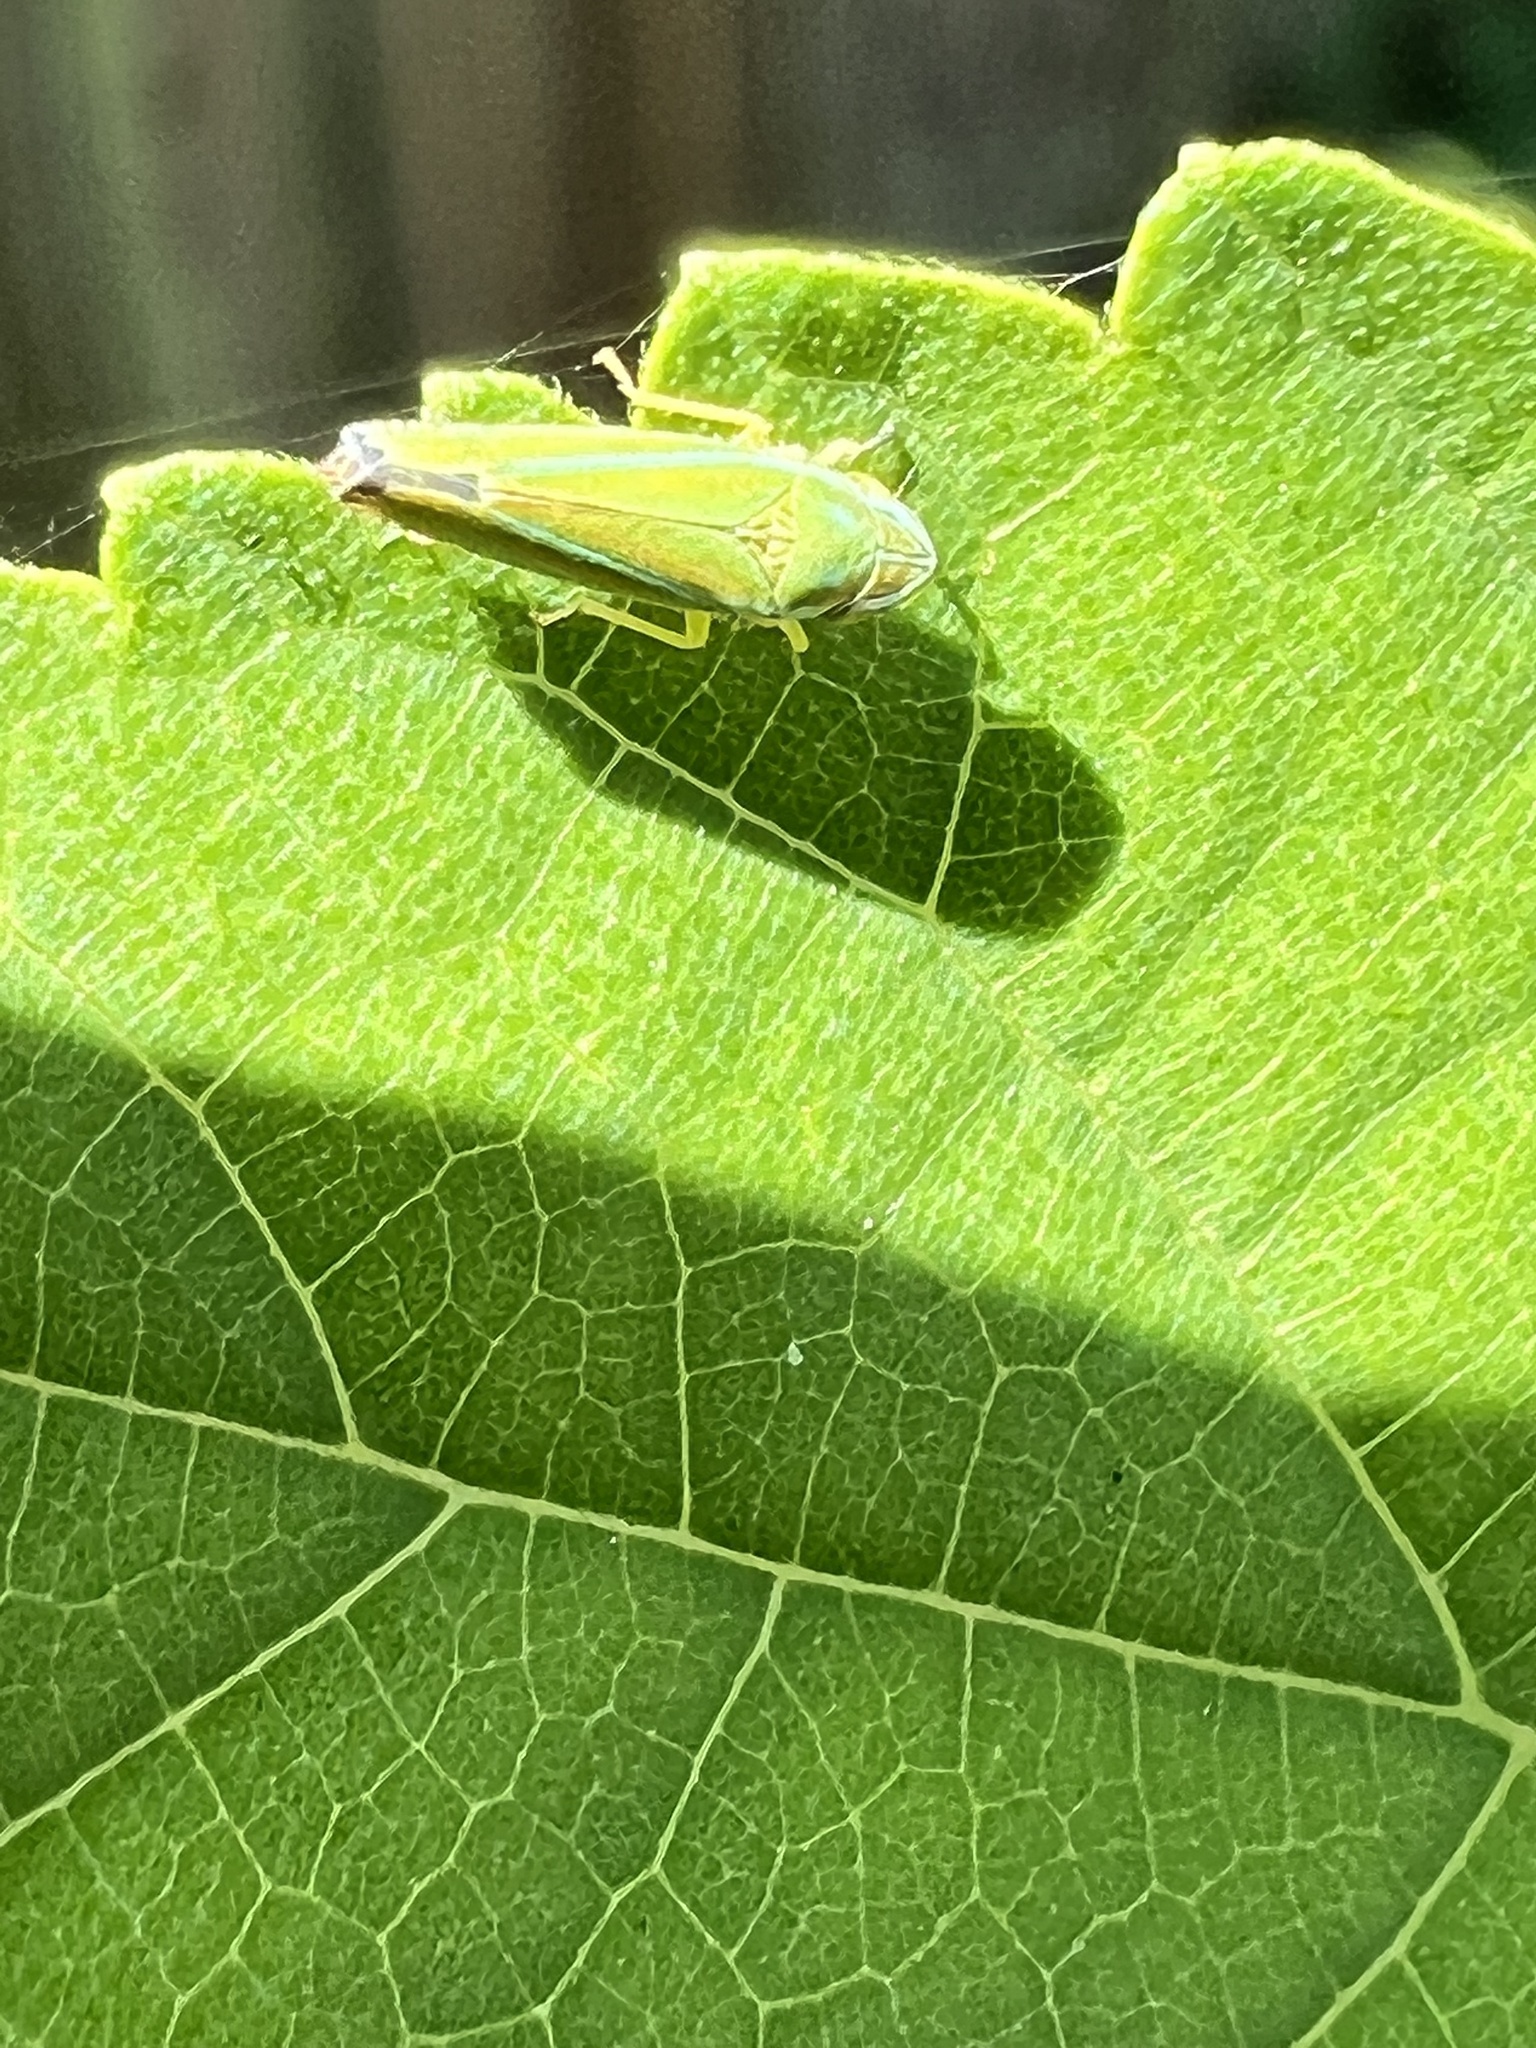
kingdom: Animalia
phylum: Arthropoda
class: Insecta
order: Hemiptera
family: Cicadellidae
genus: Graphocephala
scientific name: Graphocephala versuta
